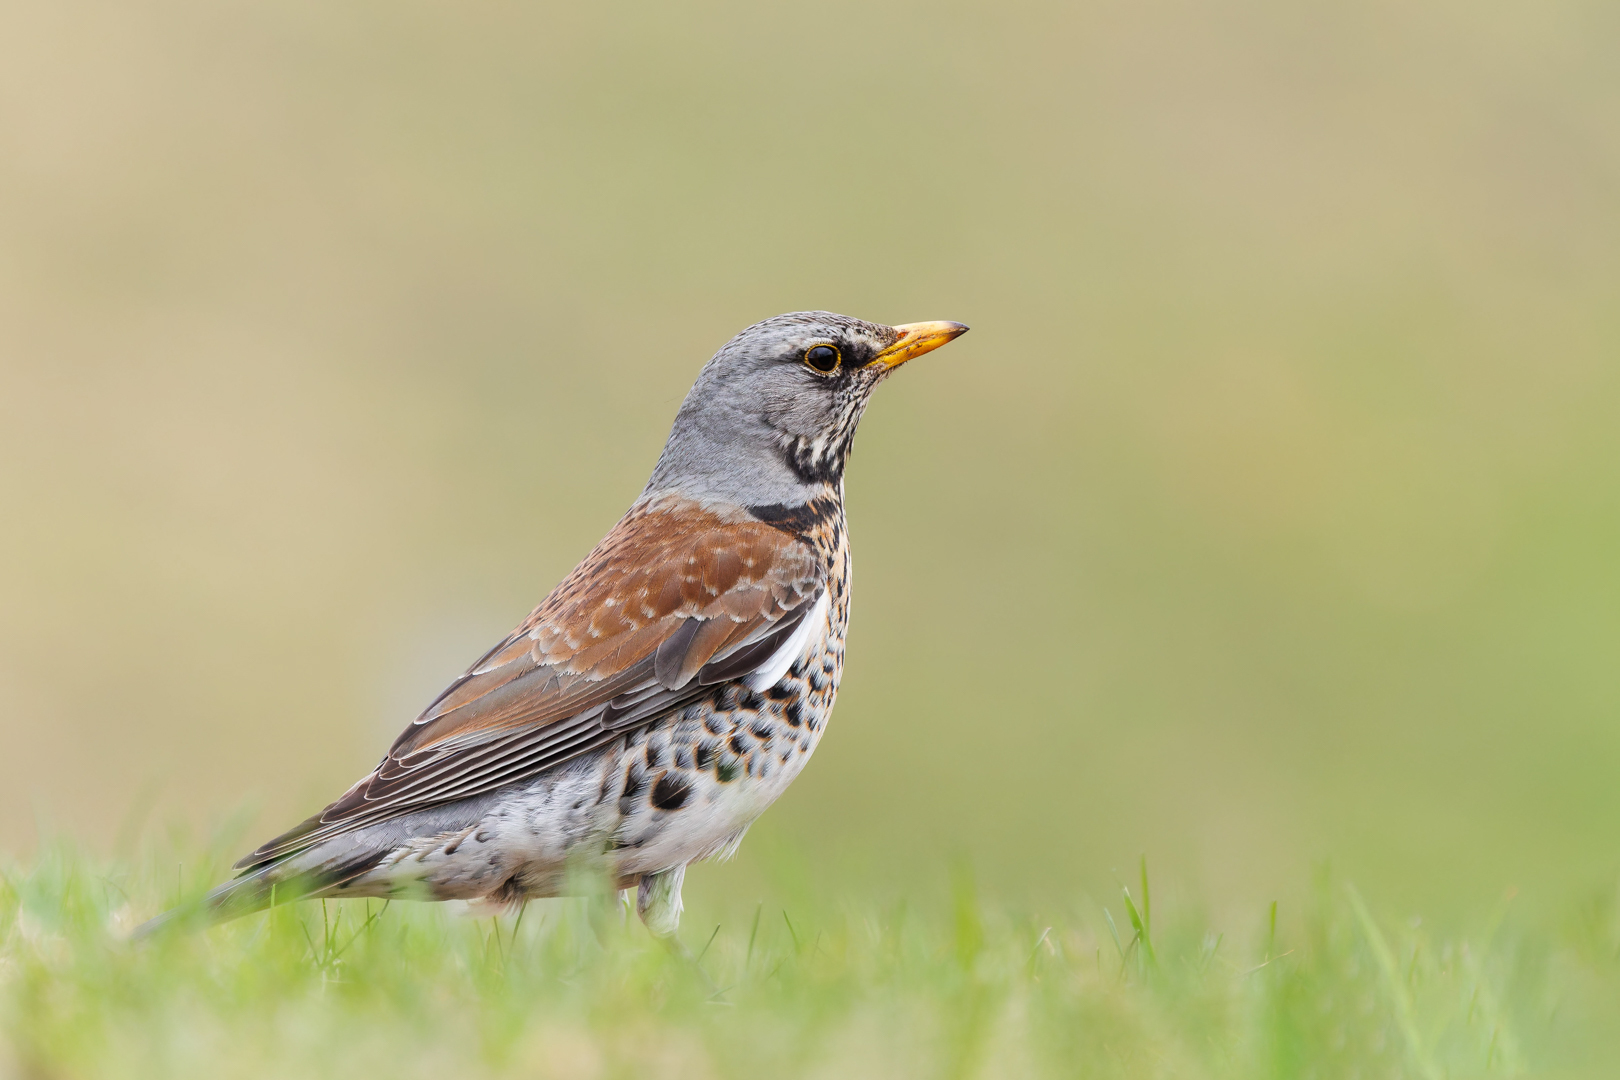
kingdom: Animalia
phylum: Chordata
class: Aves
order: Passeriformes
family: Turdidae
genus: Turdus
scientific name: Turdus pilaris
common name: Fieldfare
